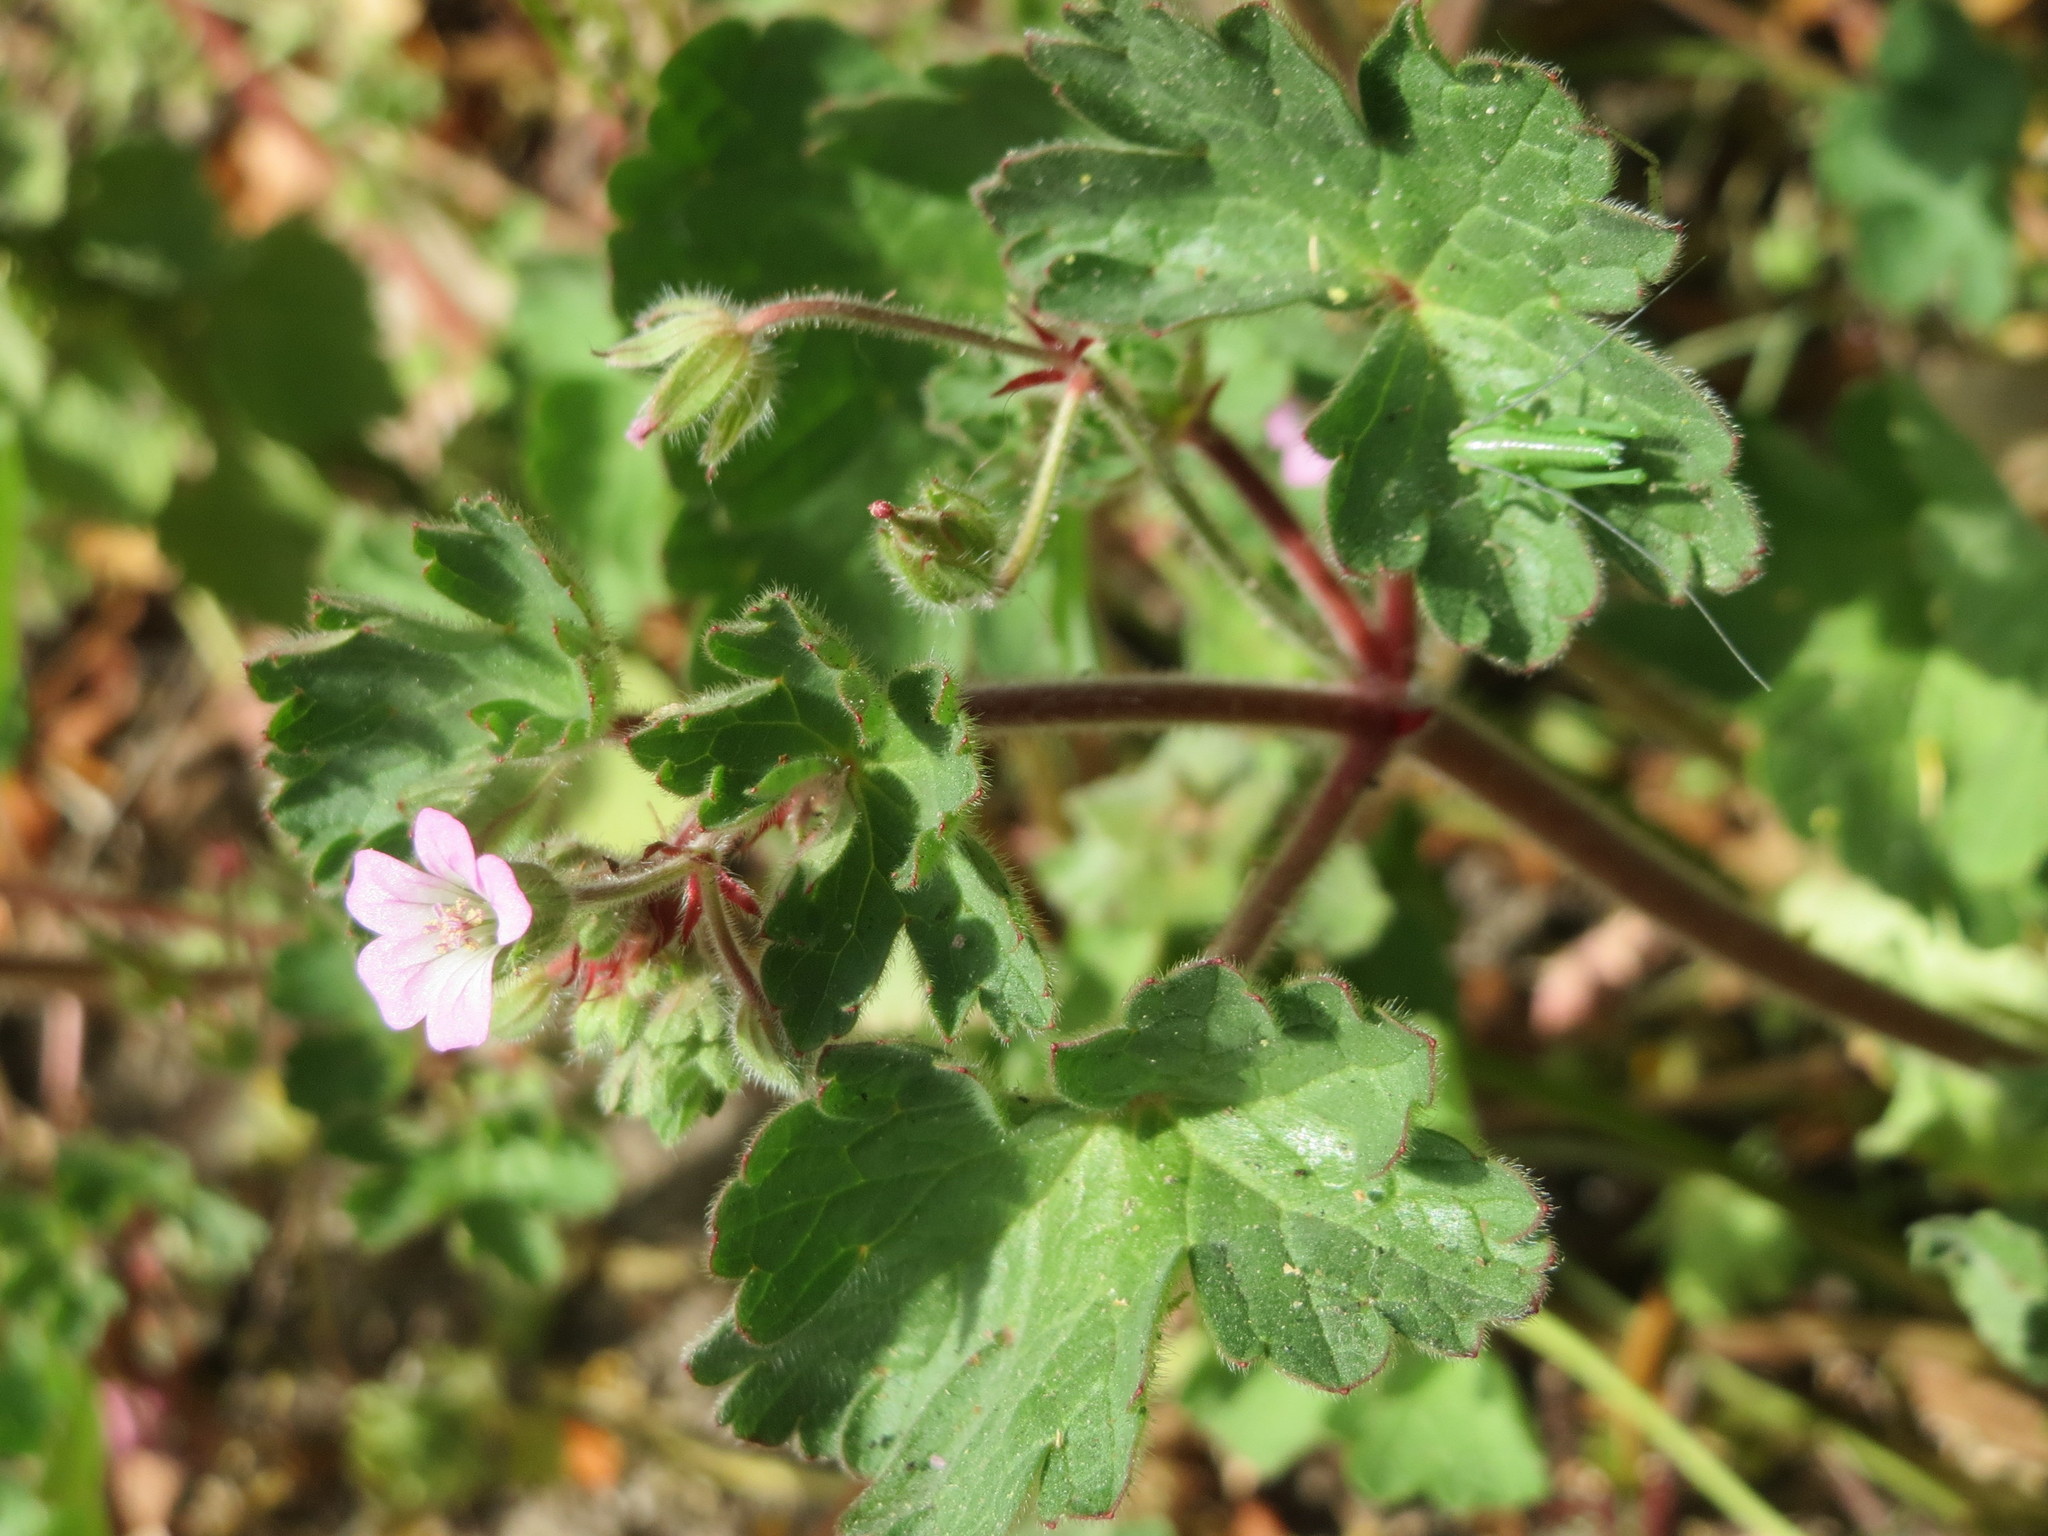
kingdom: Plantae
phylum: Tracheophyta
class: Magnoliopsida
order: Geraniales
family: Geraniaceae
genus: Geranium
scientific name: Geranium rotundifolium
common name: Round-leaved crane's-bill
